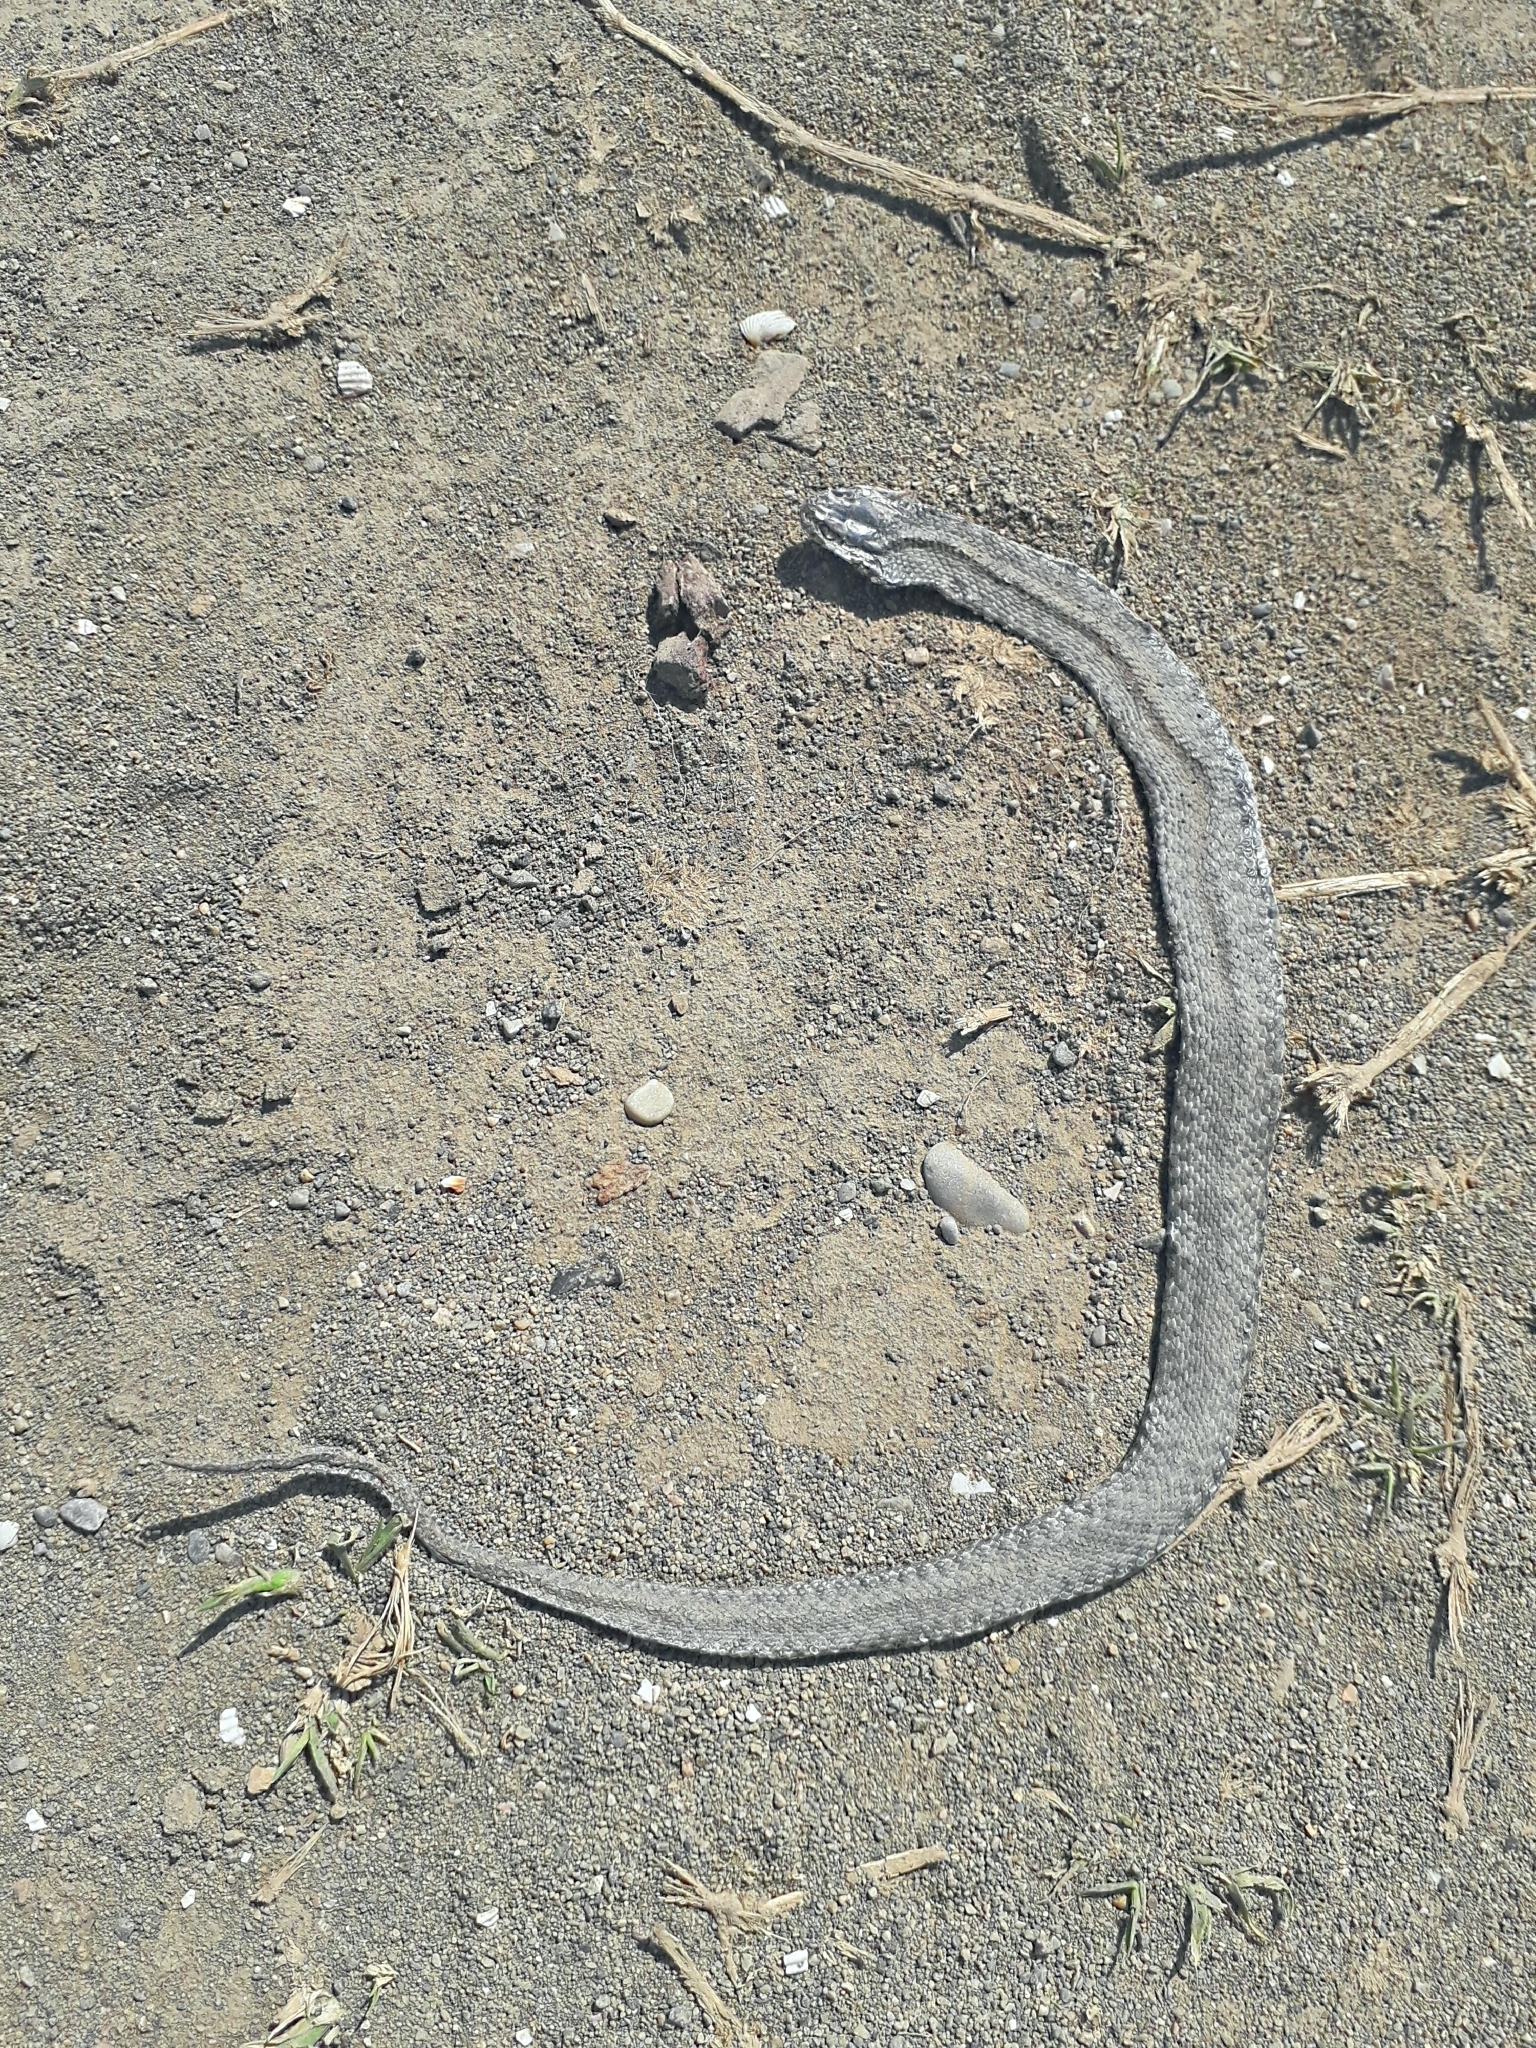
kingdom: Animalia
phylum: Chordata
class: Squamata
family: Colubridae
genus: Natrix
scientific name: Natrix tessellata
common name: Dice snake
